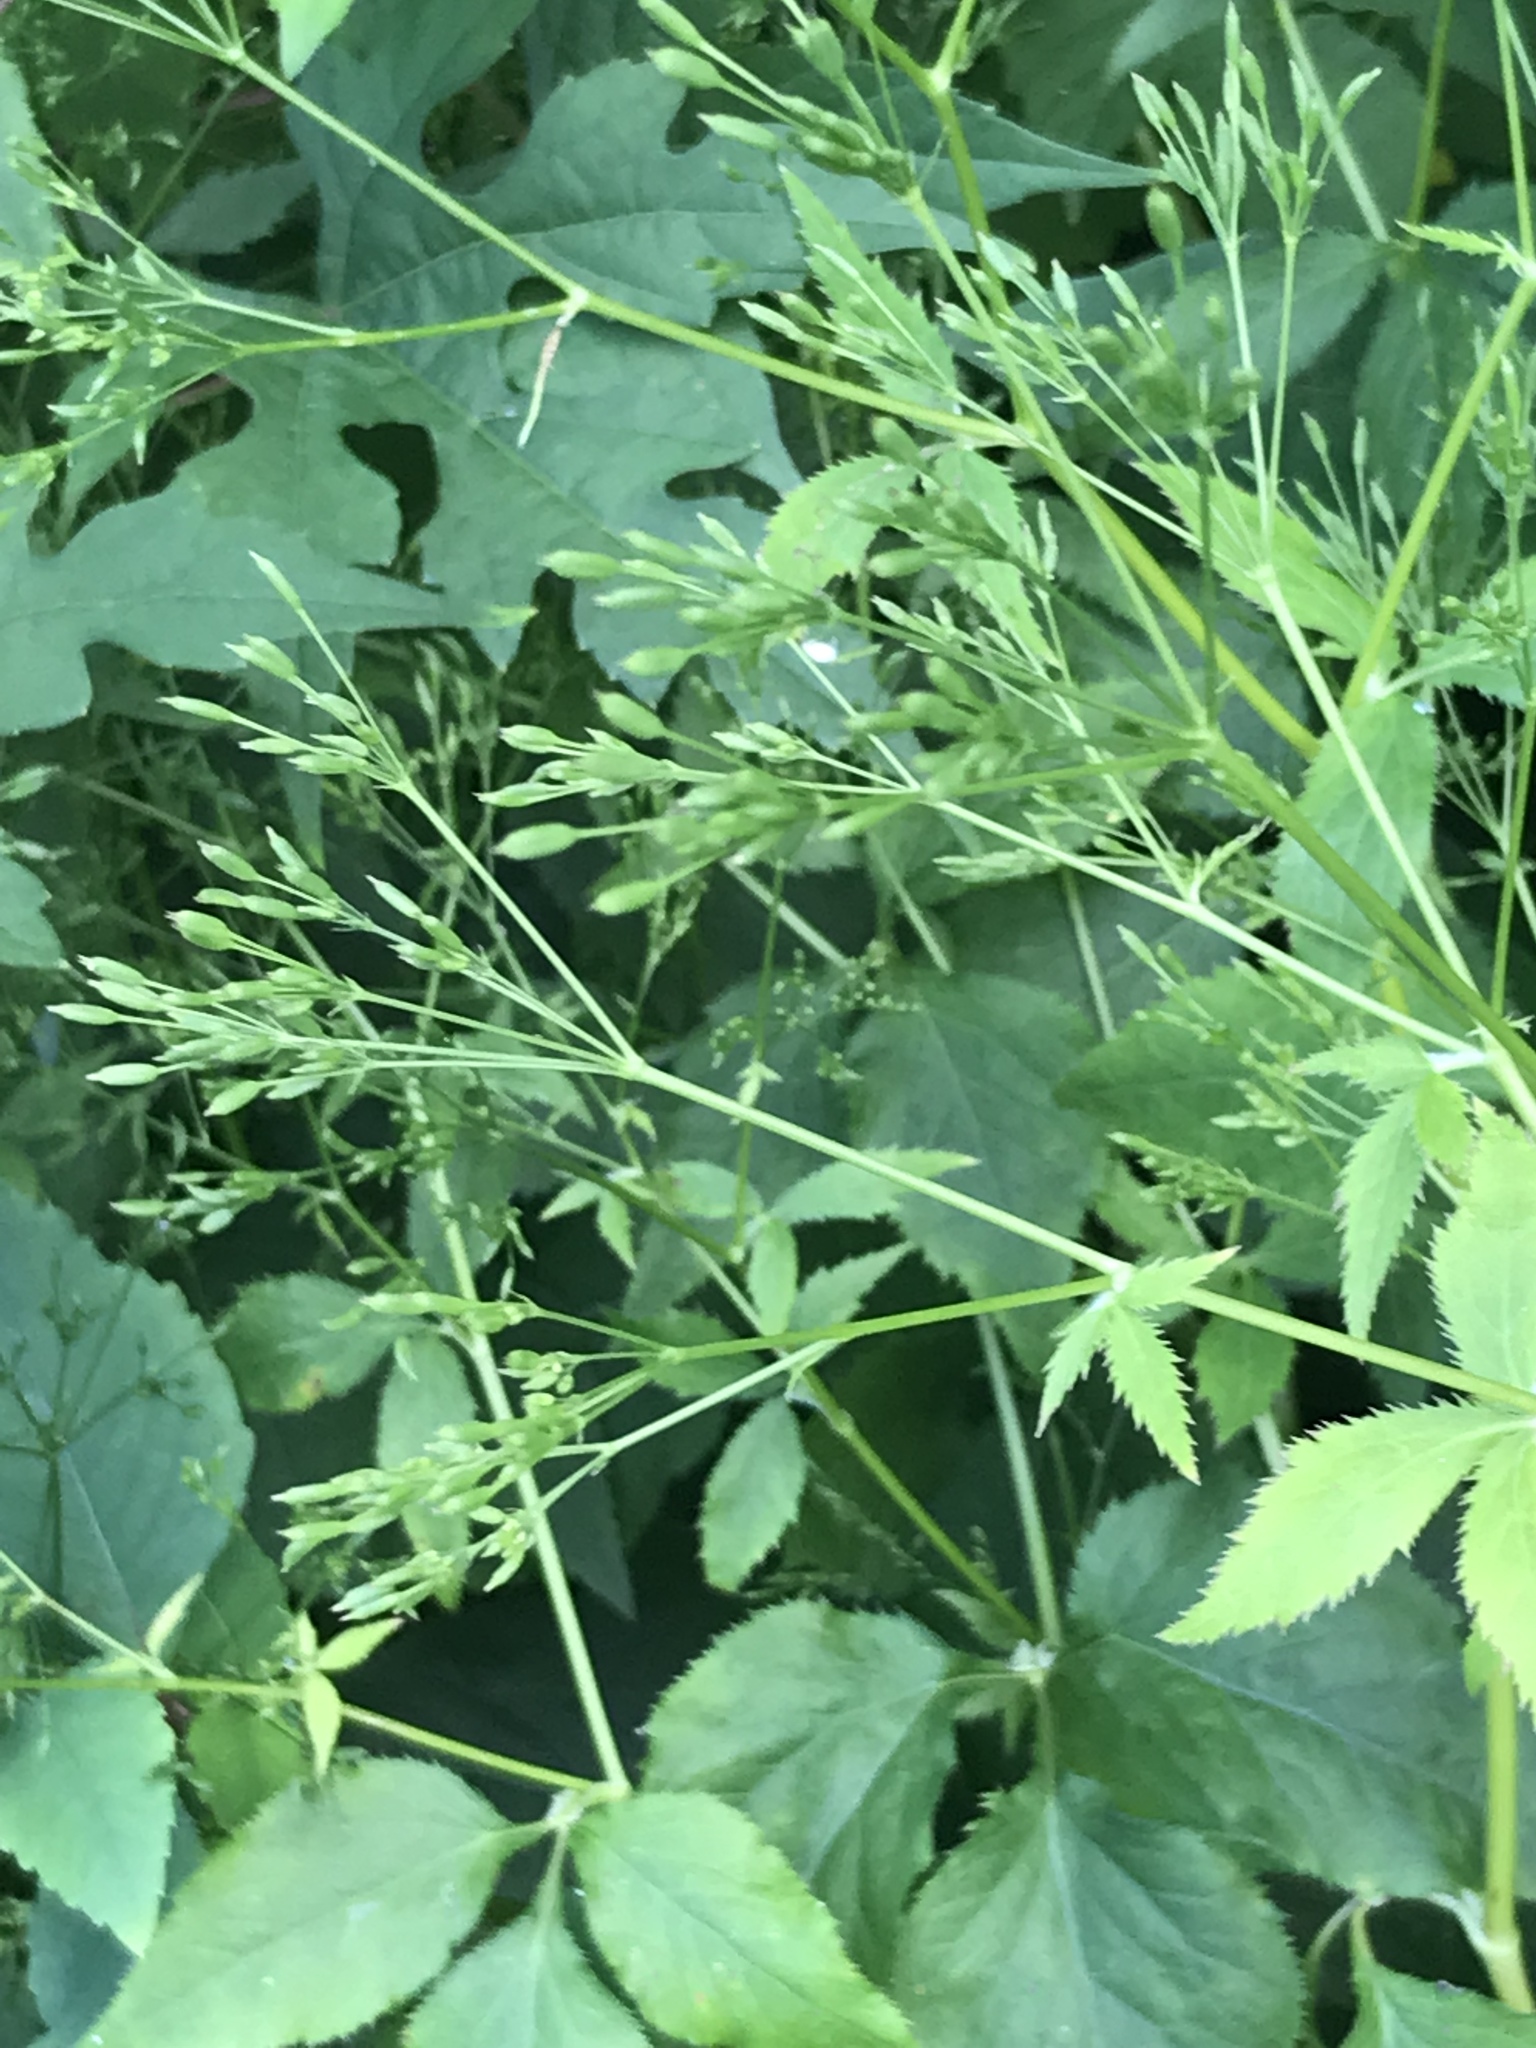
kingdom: Plantae
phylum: Tracheophyta
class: Magnoliopsida
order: Apiales
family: Apiaceae
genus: Cryptotaenia
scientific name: Cryptotaenia canadensis
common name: Honewort
